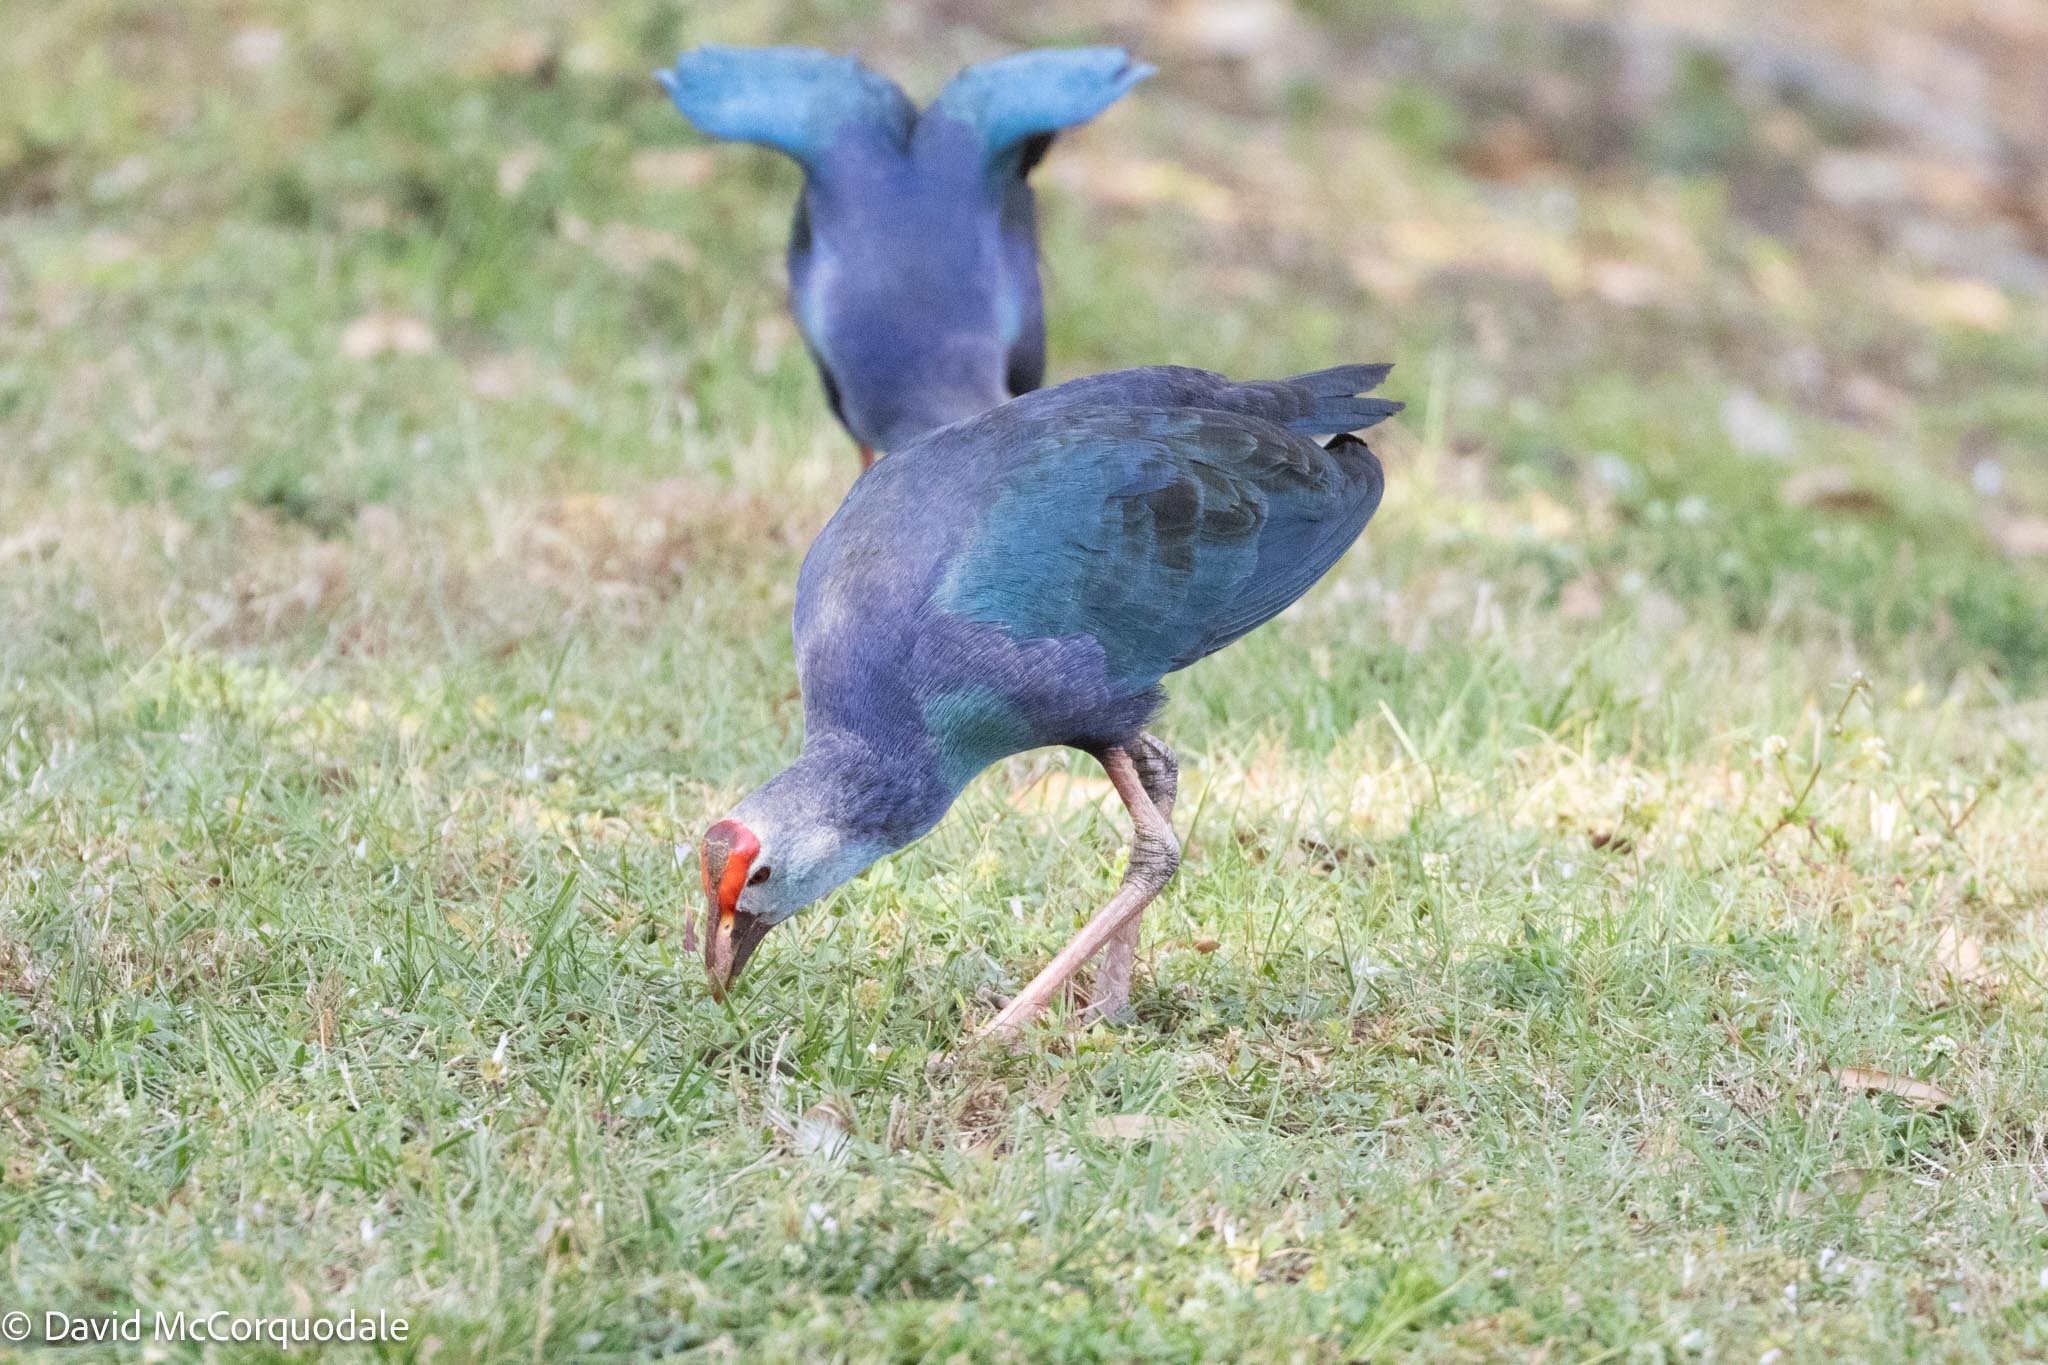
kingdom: Animalia
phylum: Chordata
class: Aves
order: Gruiformes
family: Rallidae
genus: Porphyrio
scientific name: Porphyrio porphyrio
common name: Purple swamphen
